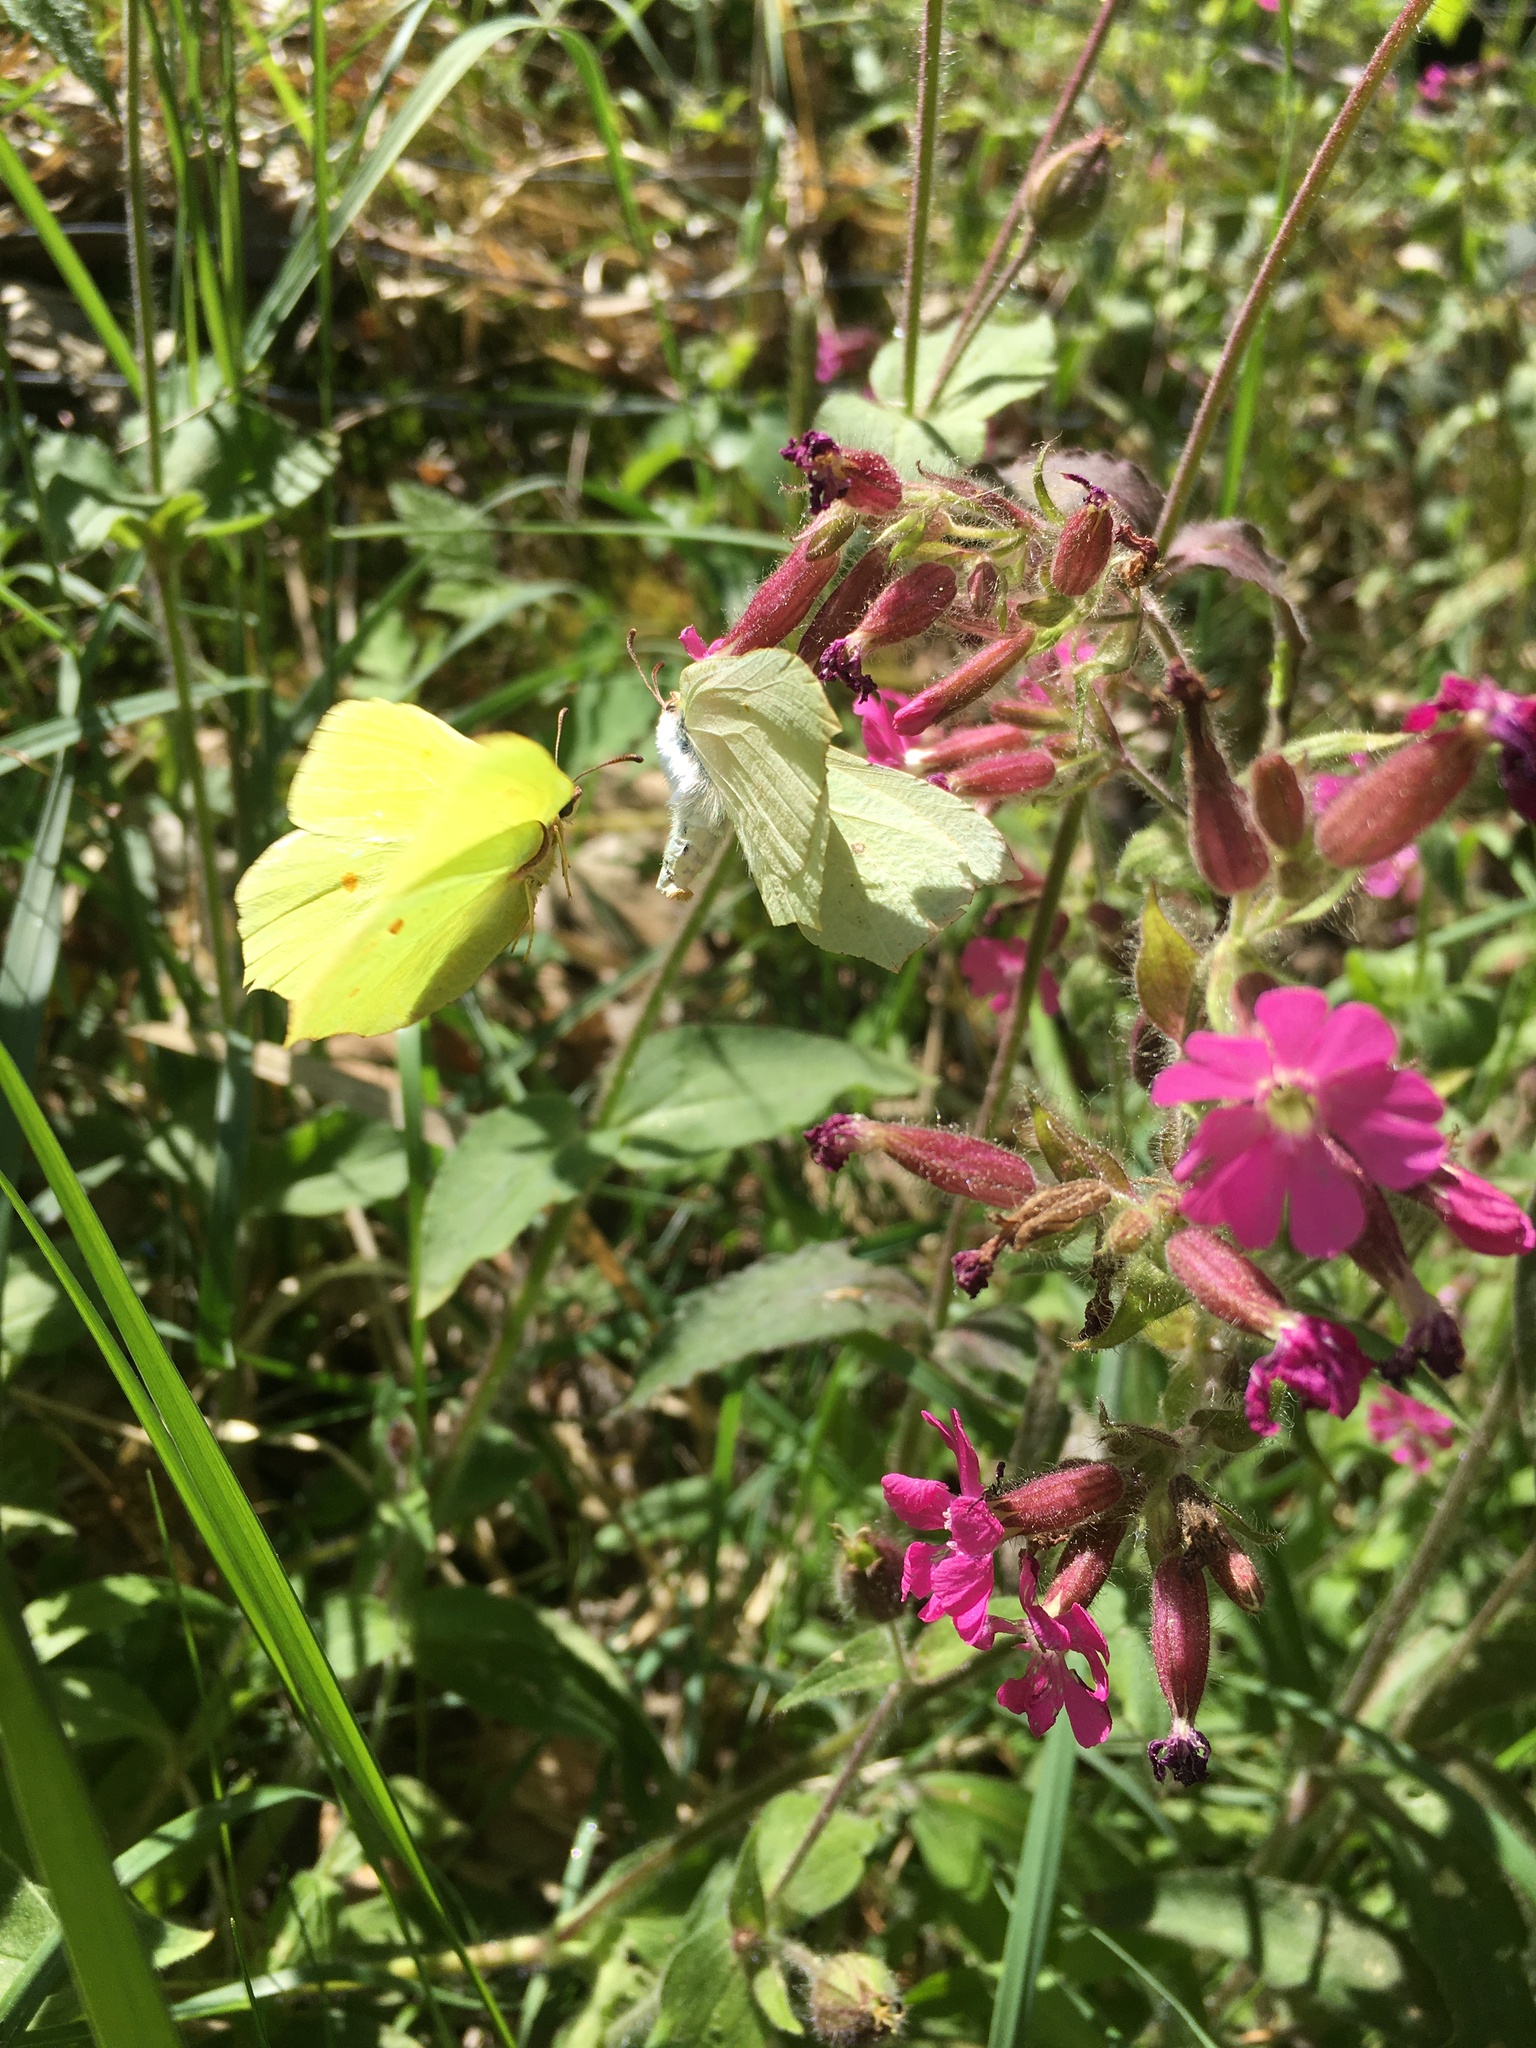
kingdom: Animalia
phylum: Arthropoda
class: Insecta
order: Lepidoptera
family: Pieridae
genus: Gonepteryx
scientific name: Gonepteryx rhamni
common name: Brimstone
